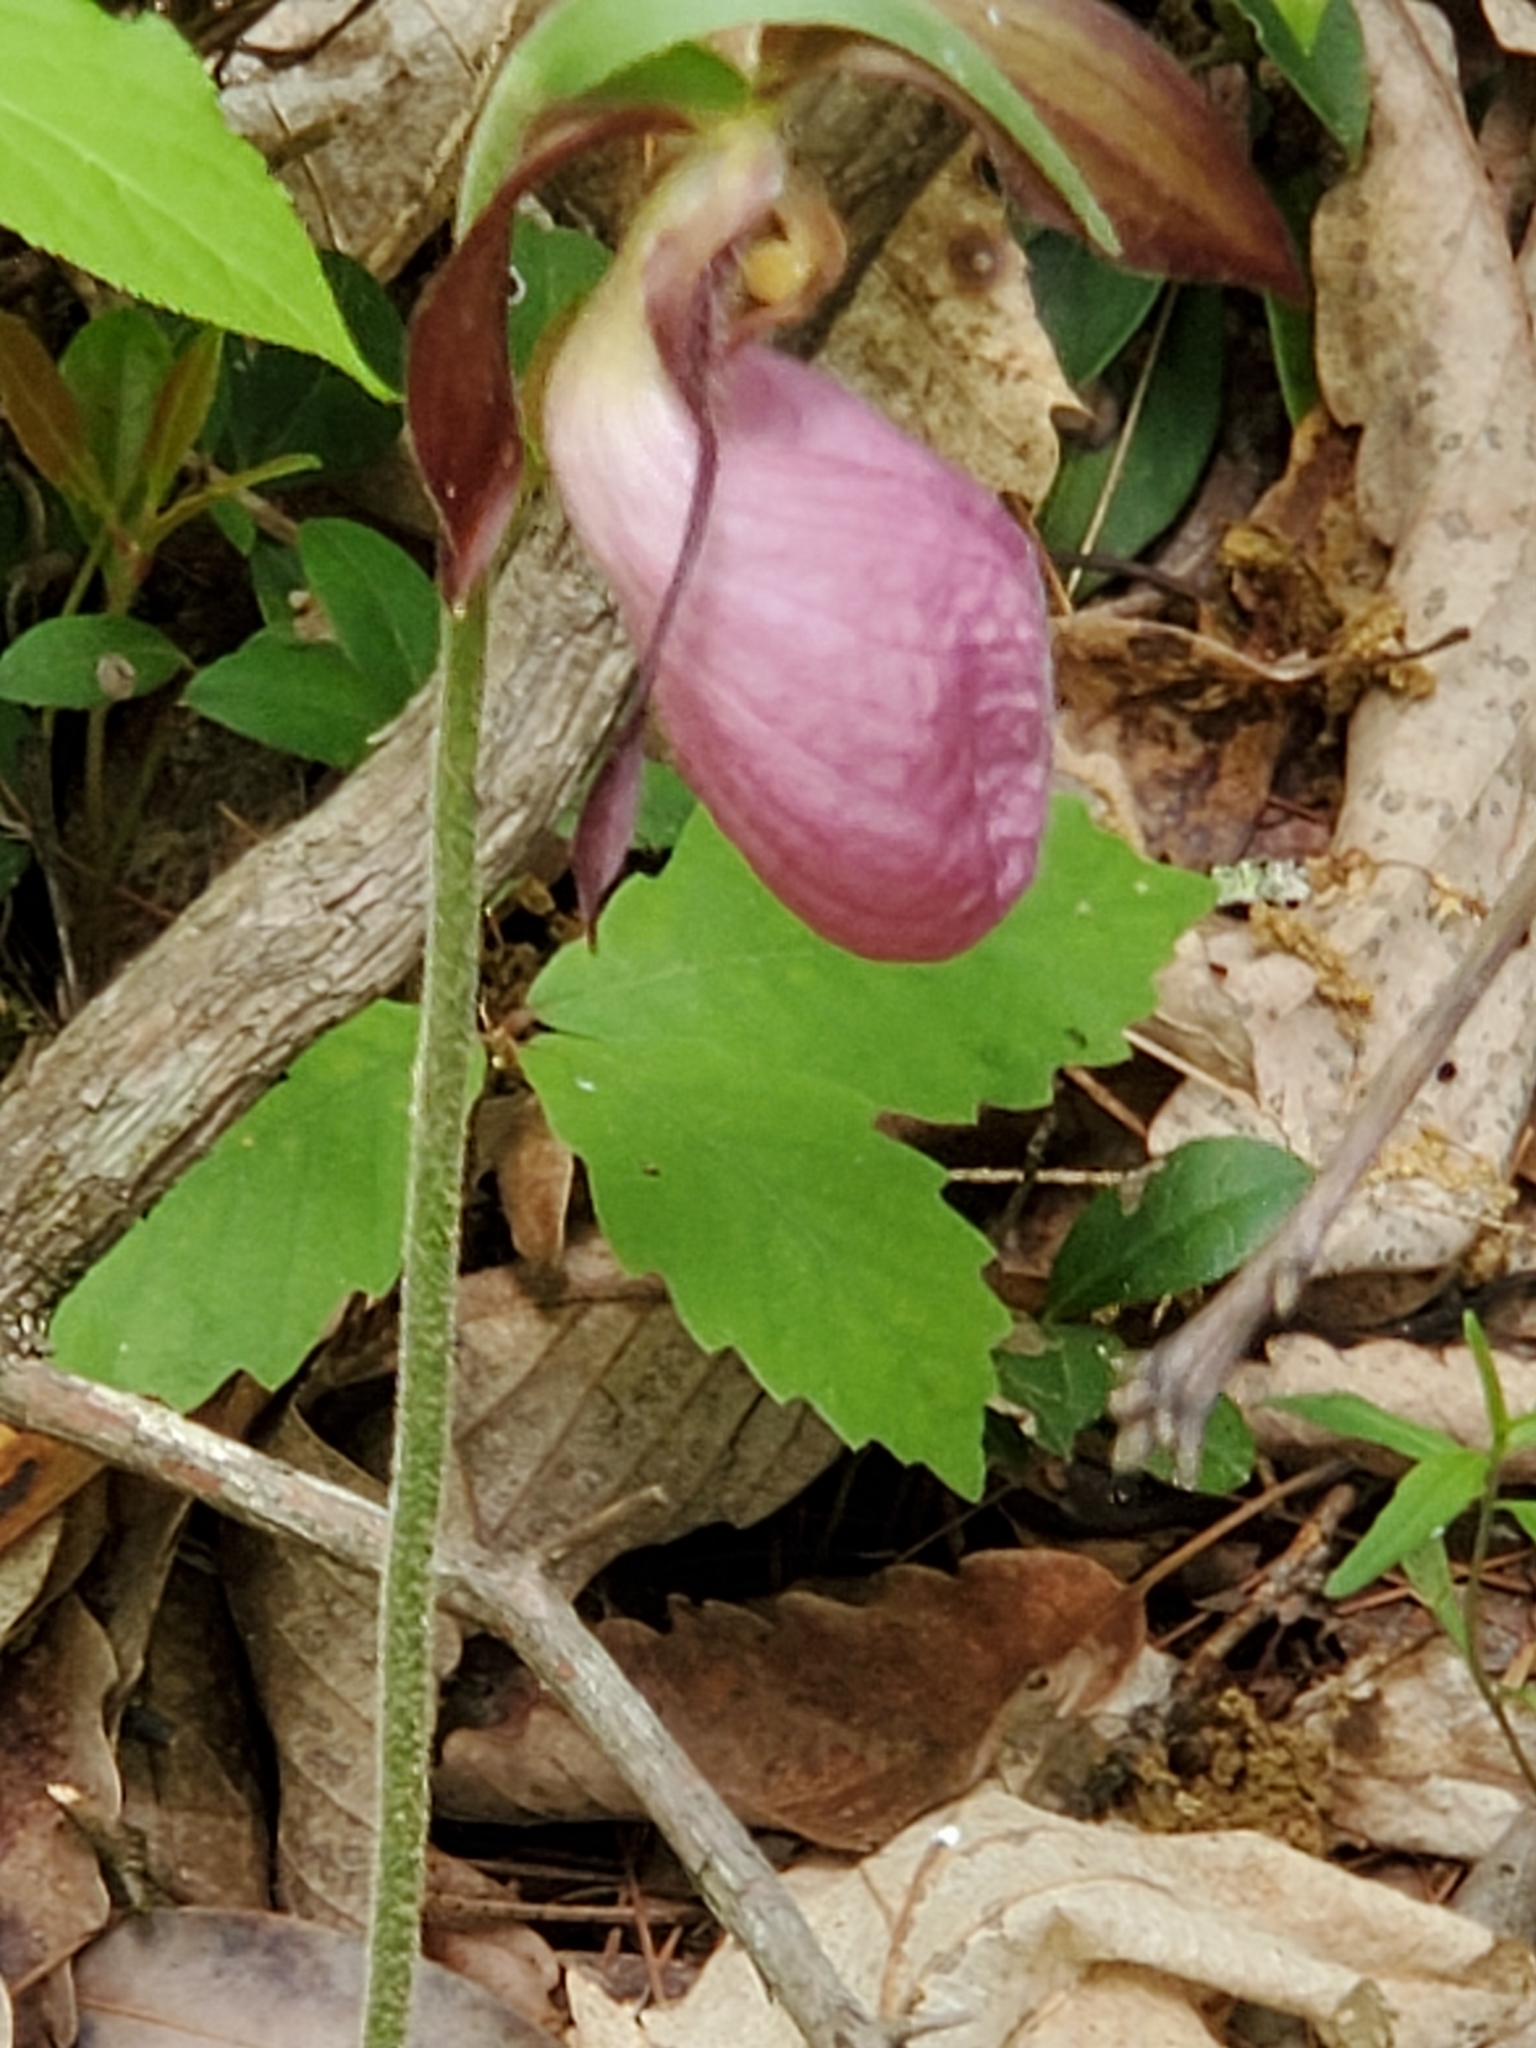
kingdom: Plantae
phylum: Tracheophyta
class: Liliopsida
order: Asparagales
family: Orchidaceae
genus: Cypripedium
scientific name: Cypripedium acaule
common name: Pink lady's-slipper
